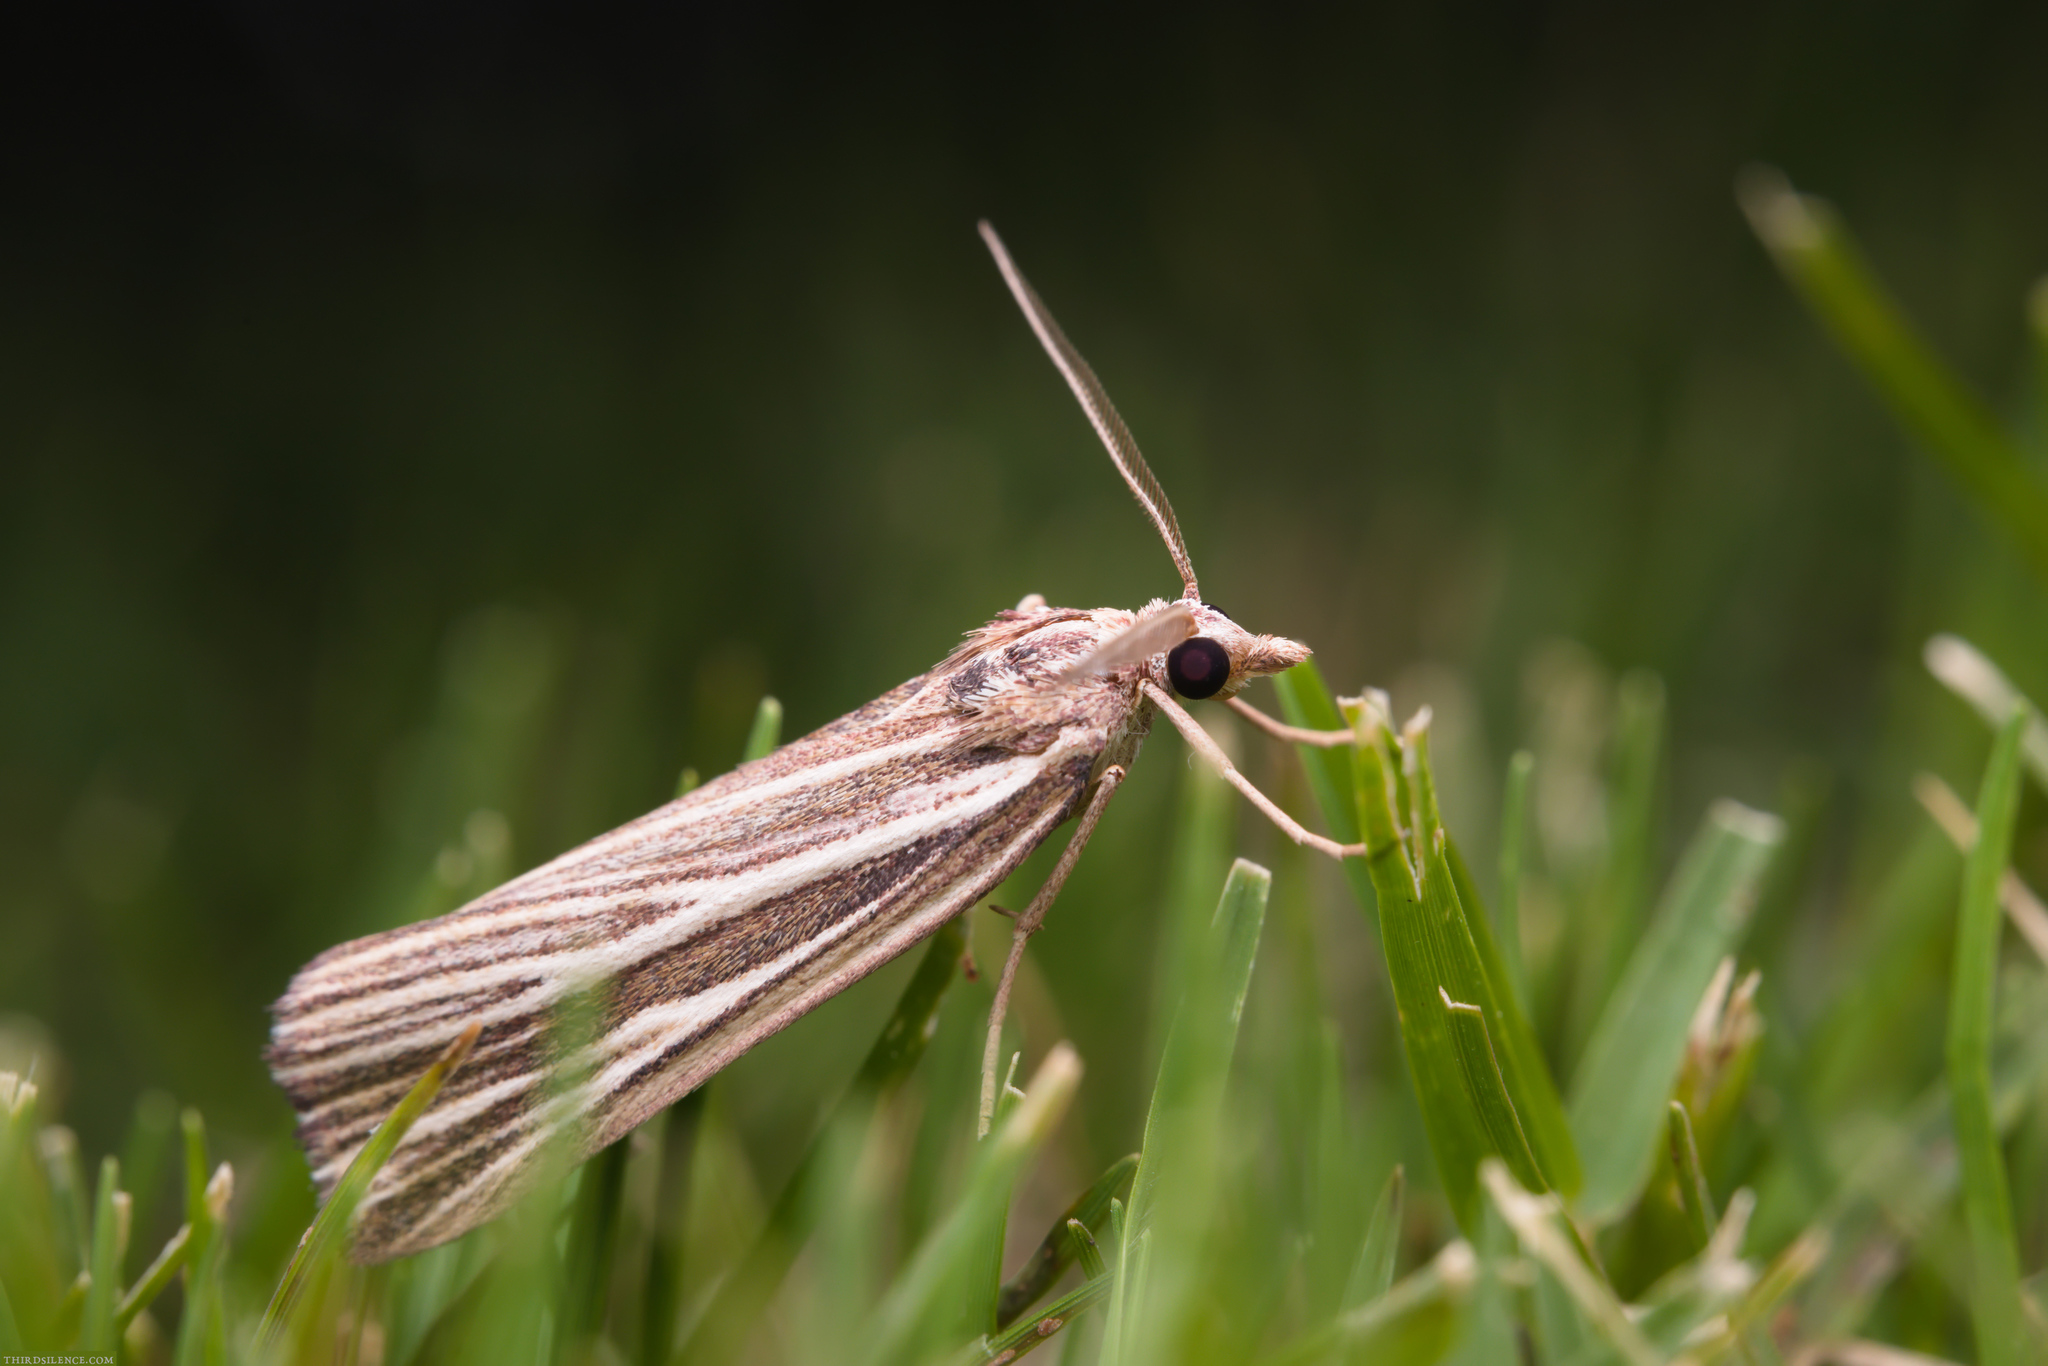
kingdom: Animalia
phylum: Arthropoda
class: Insecta
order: Lepidoptera
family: Geometridae
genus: Rhynchopsota
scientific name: Rhynchopsota delogramma
